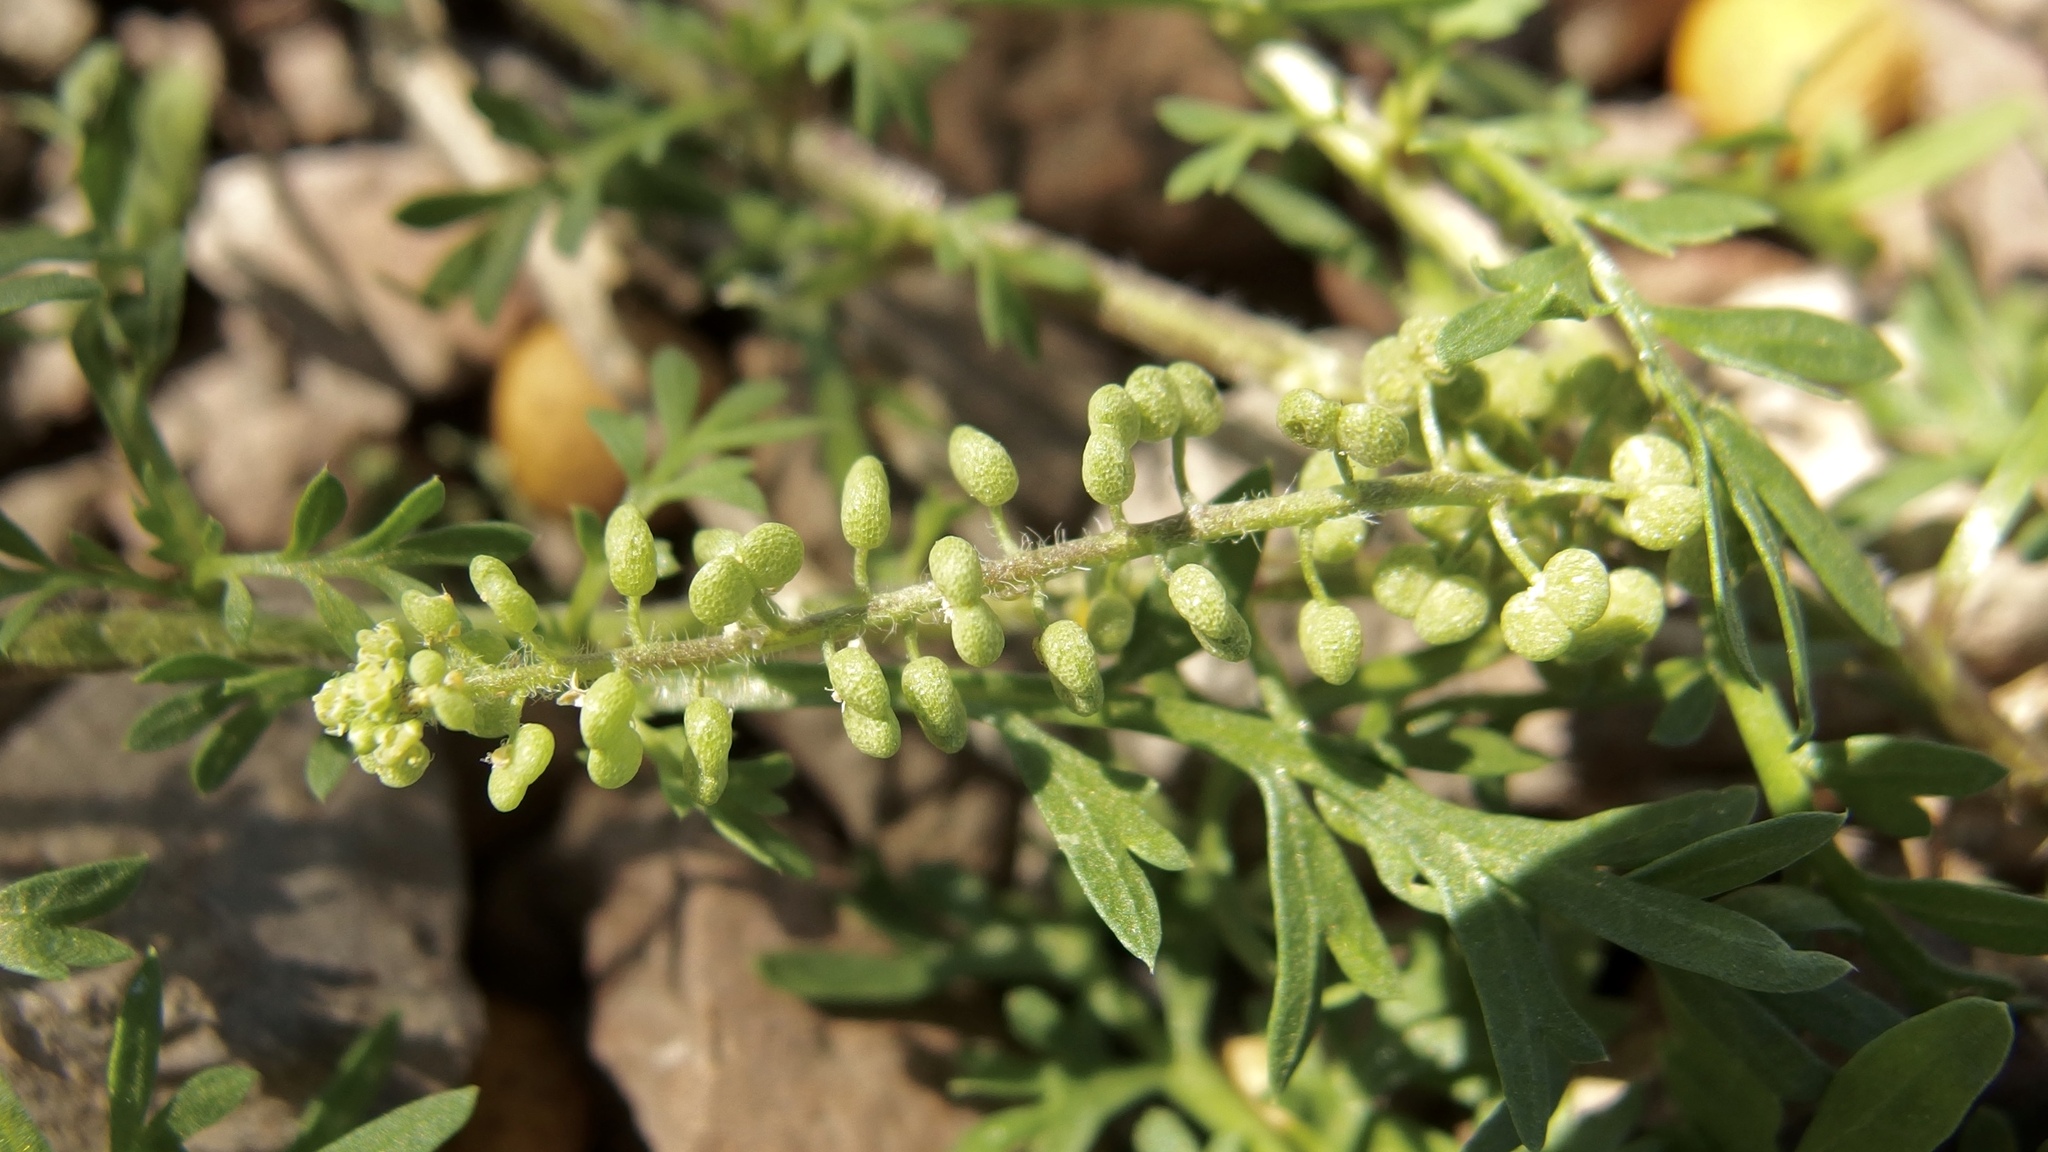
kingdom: Plantae
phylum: Tracheophyta
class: Magnoliopsida
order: Brassicales
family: Brassicaceae
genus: Lepidium
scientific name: Lepidium didymum
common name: Lesser swinecress
